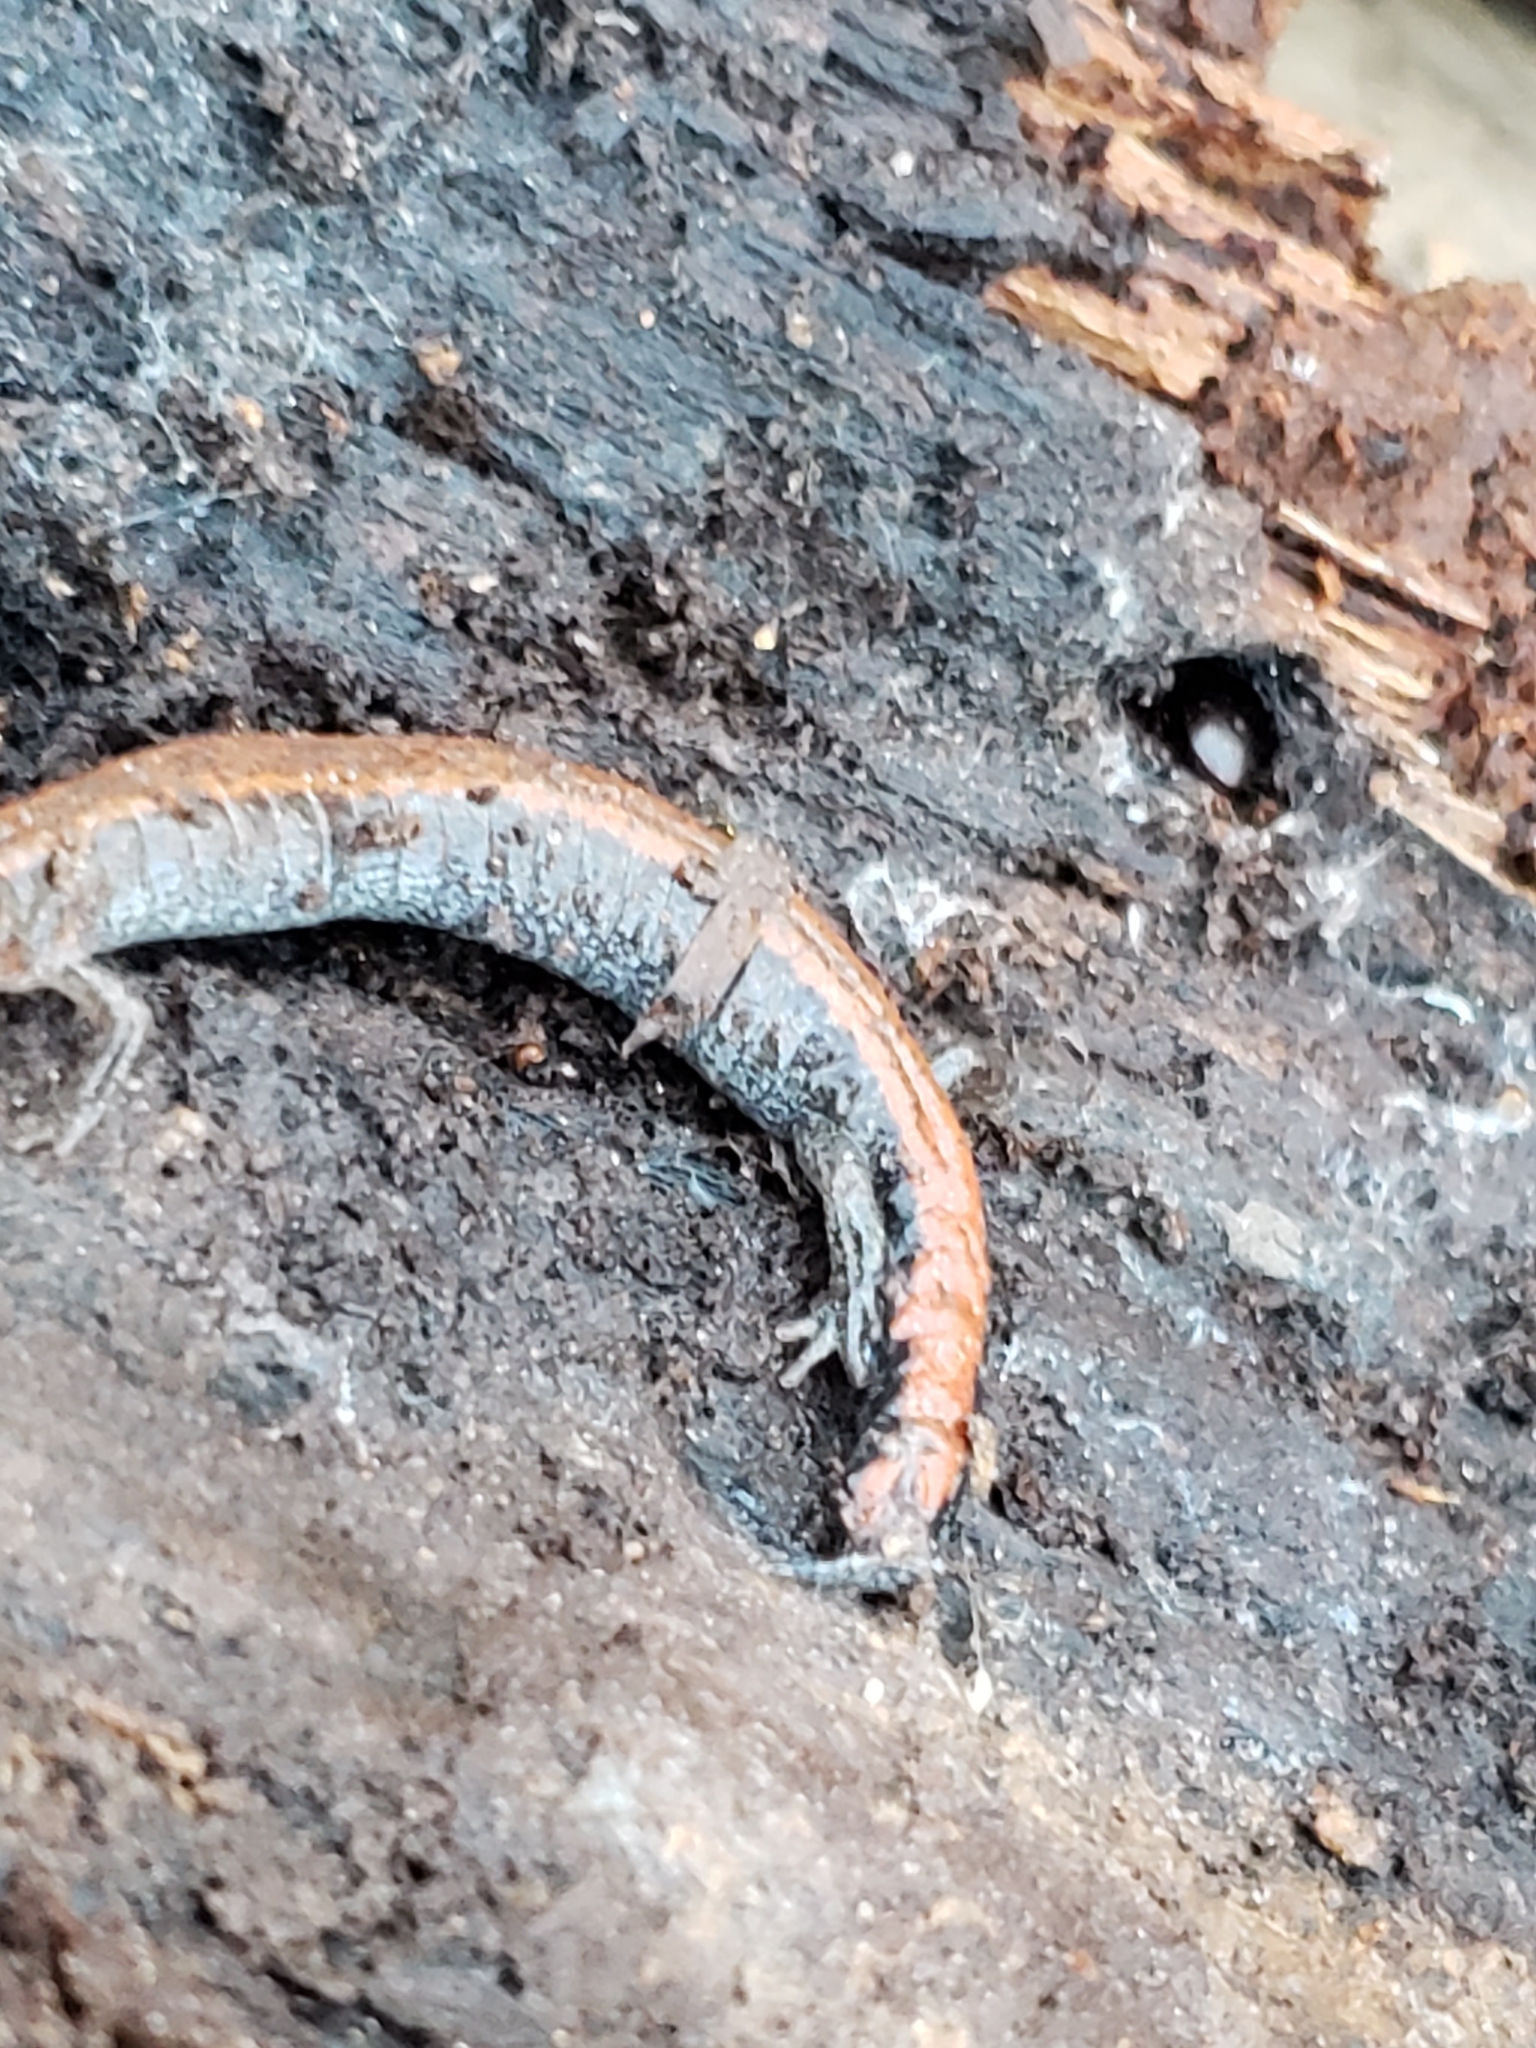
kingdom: Animalia
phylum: Chordata
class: Amphibia
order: Caudata
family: Plethodontidae
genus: Plethodon
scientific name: Plethodon cinereus
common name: Redback salamander
